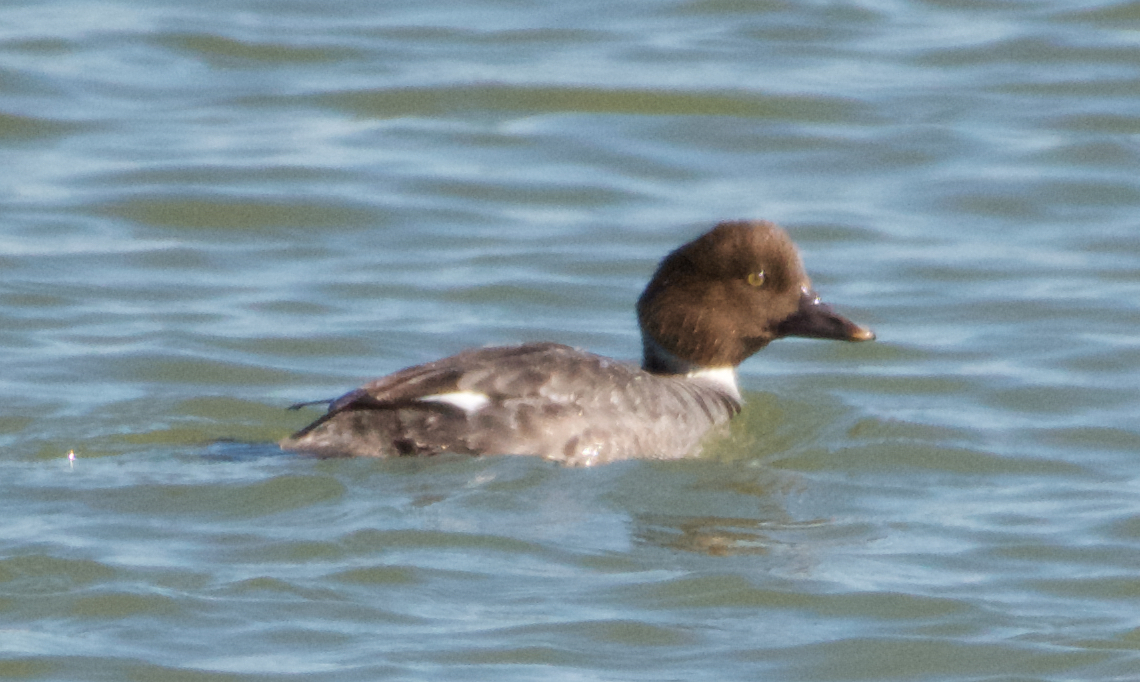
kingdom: Animalia
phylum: Chordata
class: Aves
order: Anseriformes
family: Anatidae
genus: Bucephala
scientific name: Bucephala clangula
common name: Common goldeneye
